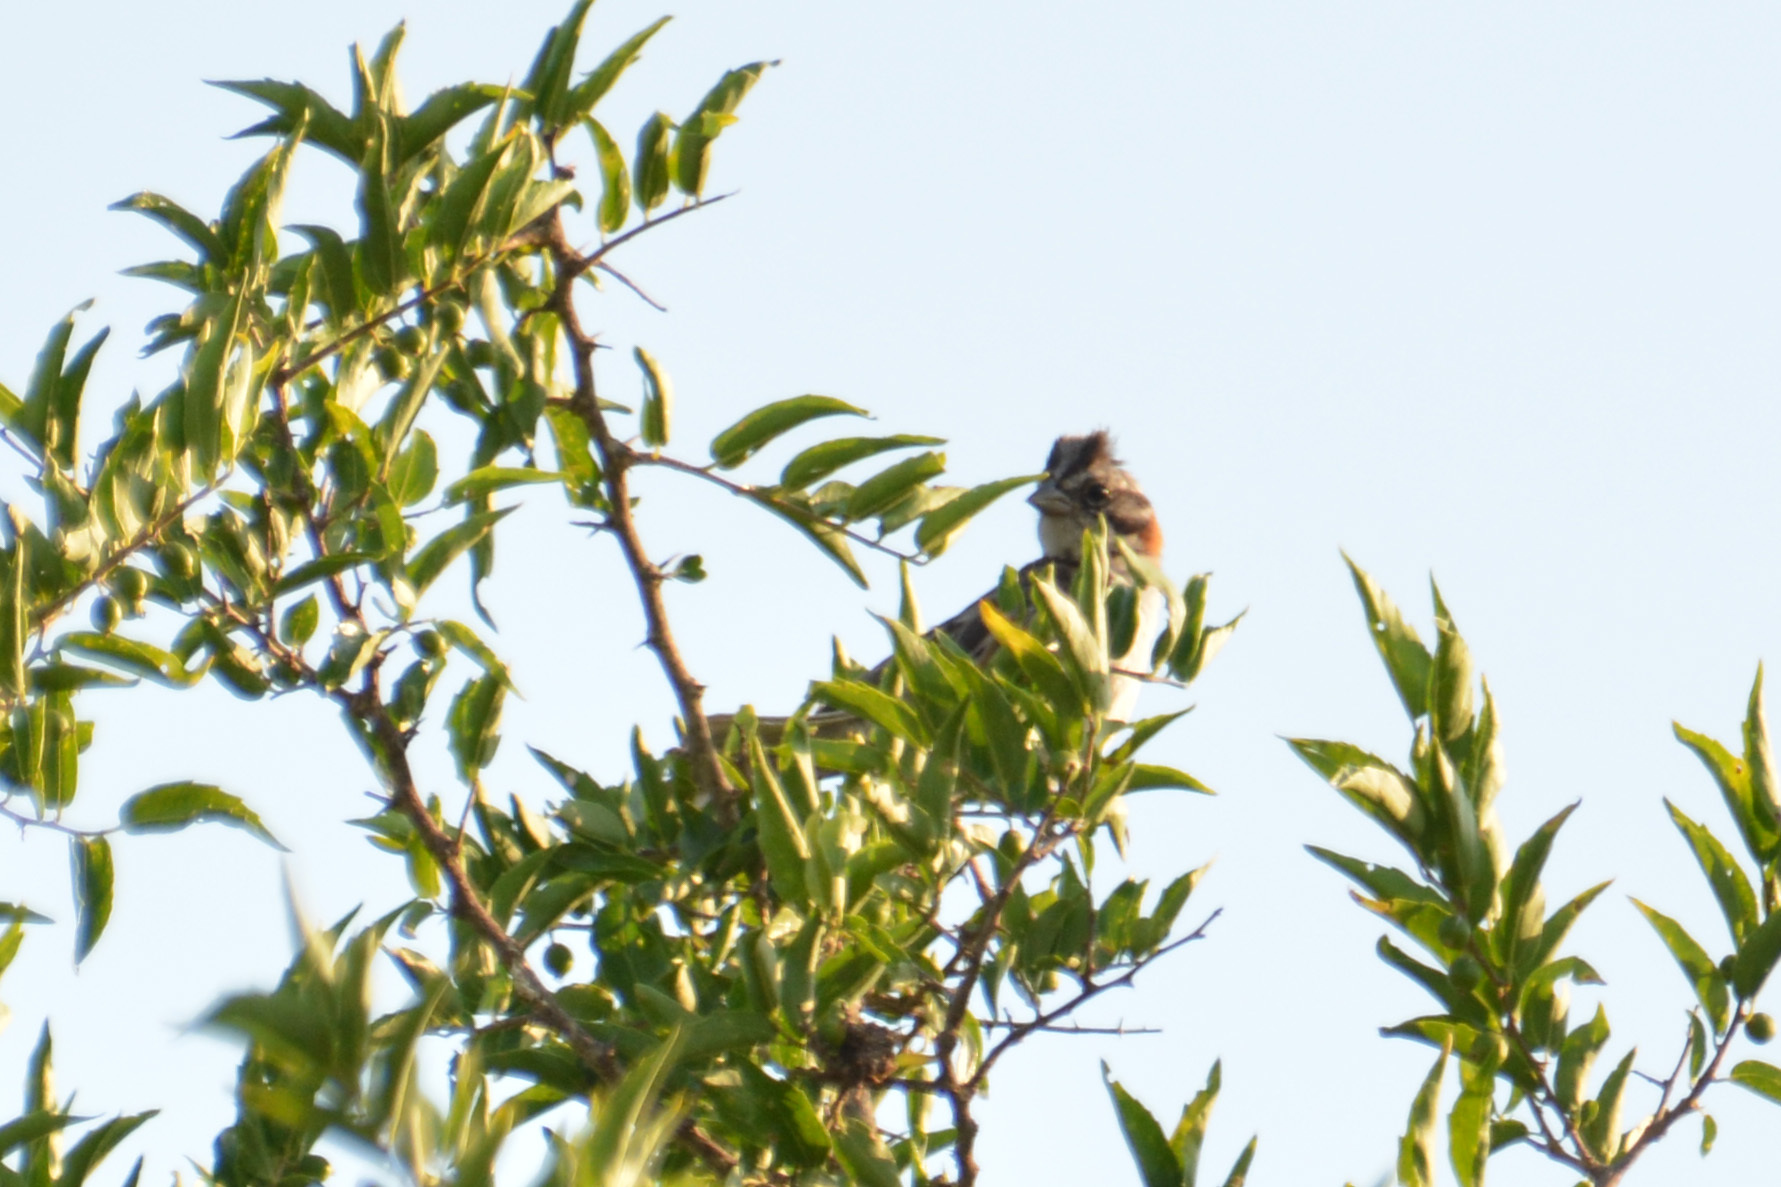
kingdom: Animalia
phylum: Chordata
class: Aves
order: Passeriformes
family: Passerellidae
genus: Zonotrichia
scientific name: Zonotrichia capensis
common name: Rufous-collared sparrow
